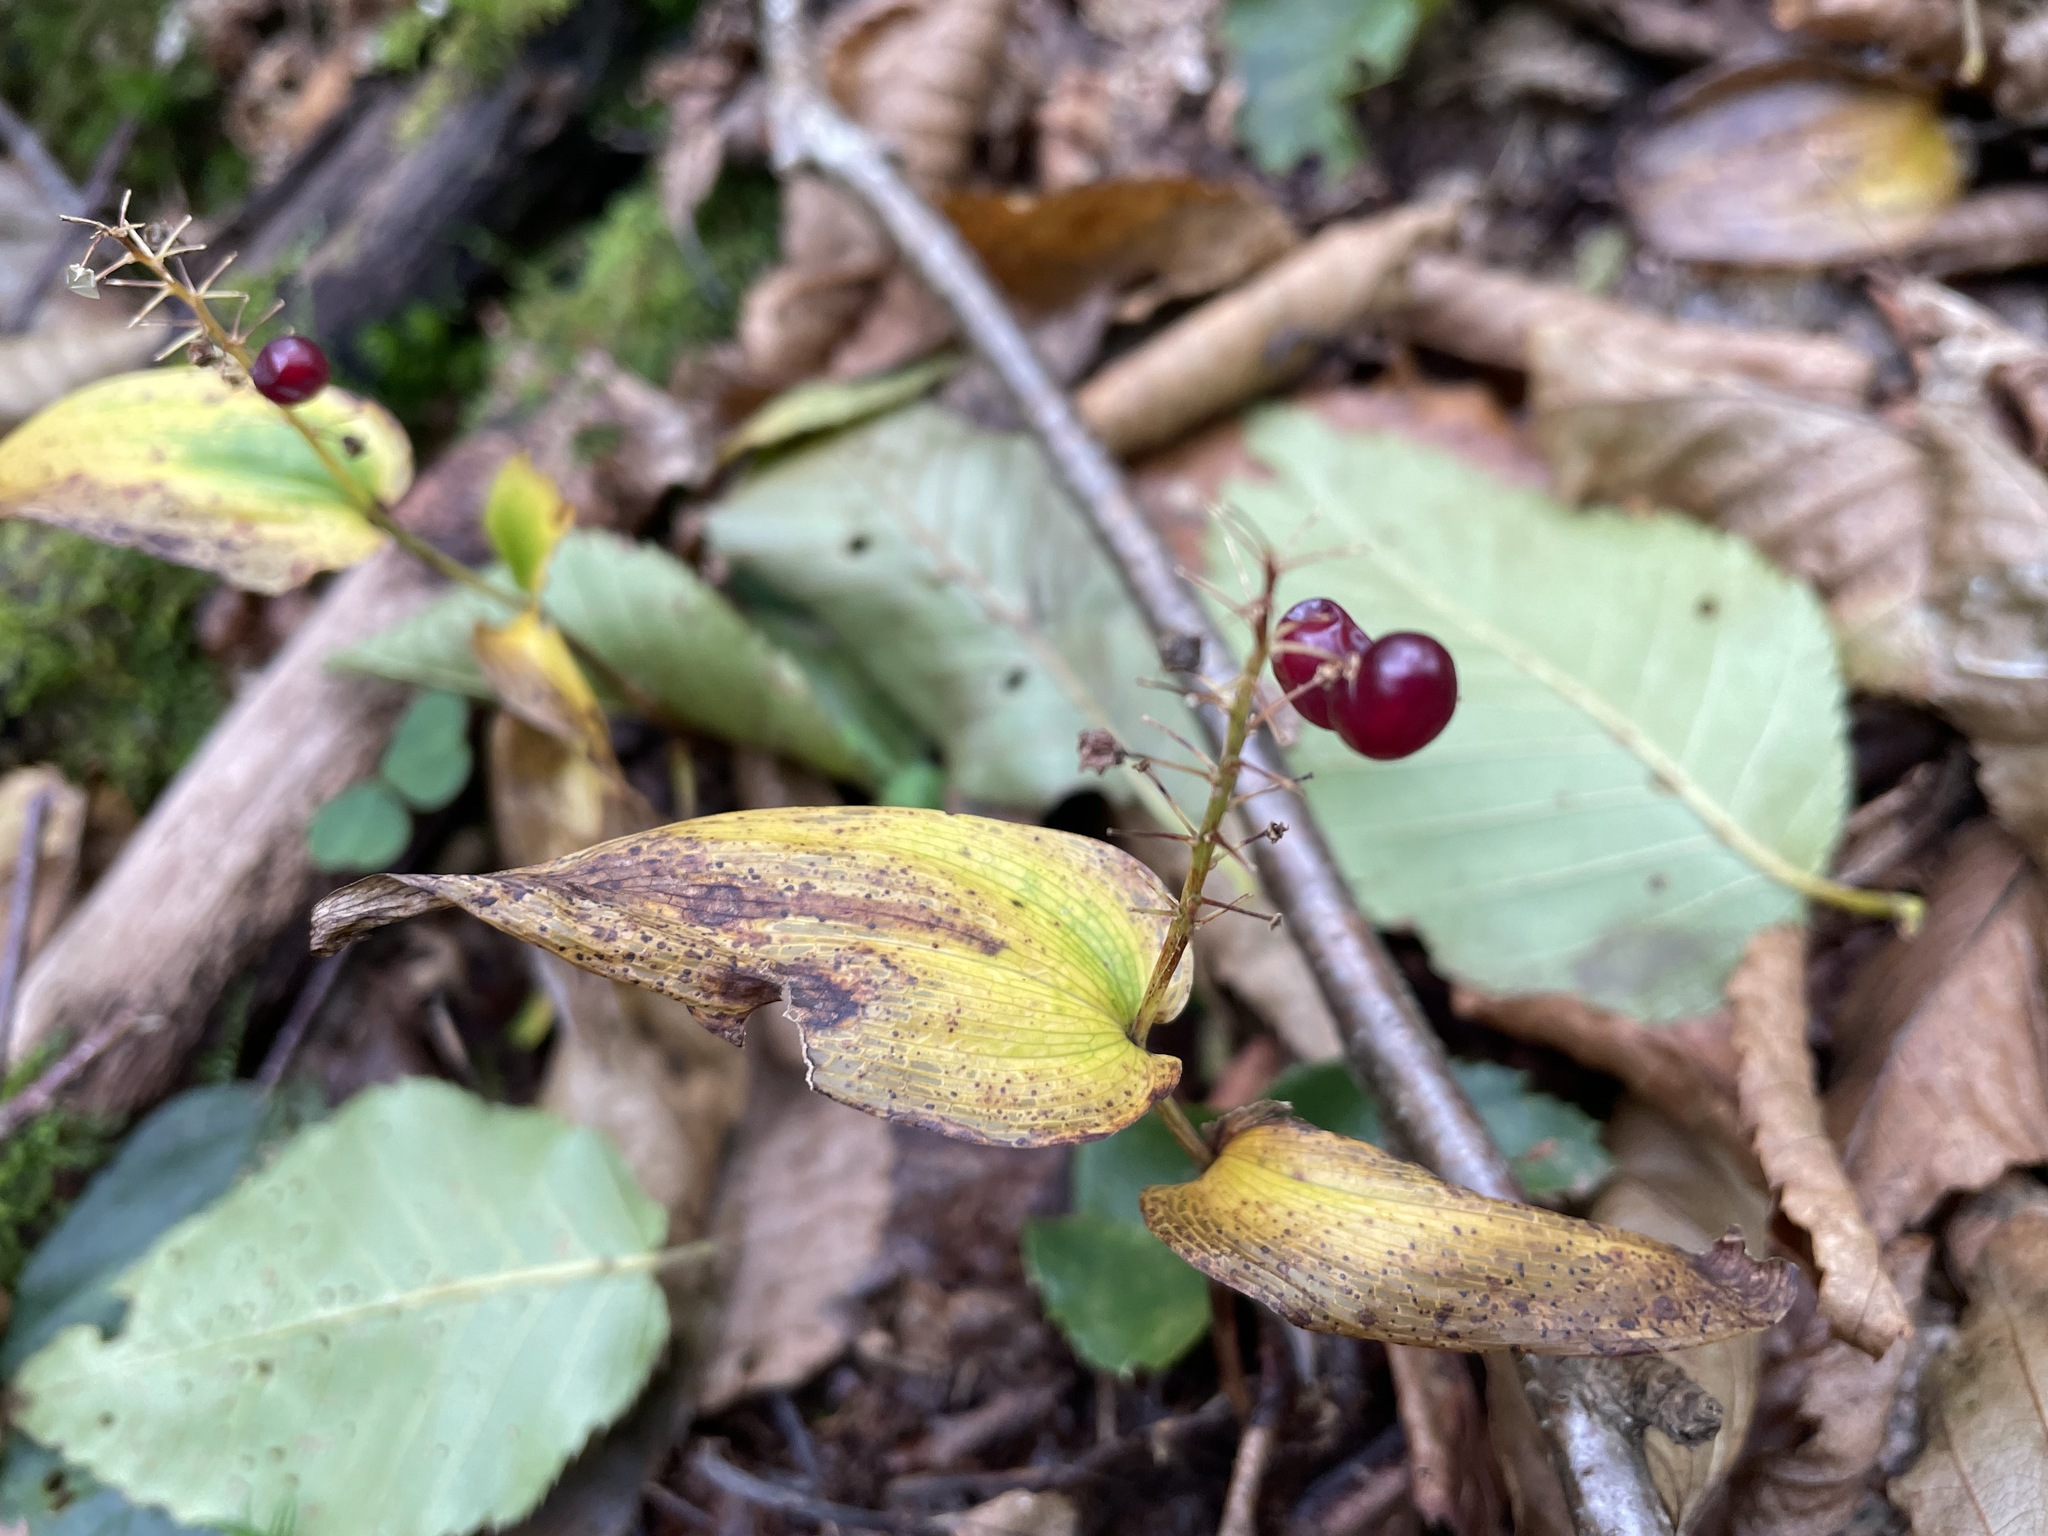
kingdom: Plantae
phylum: Tracheophyta
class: Liliopsida
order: Asparagales
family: Asparagaceae
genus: Maianthemum
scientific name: Maianthemum canadense
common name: False lily-of-the-valley
